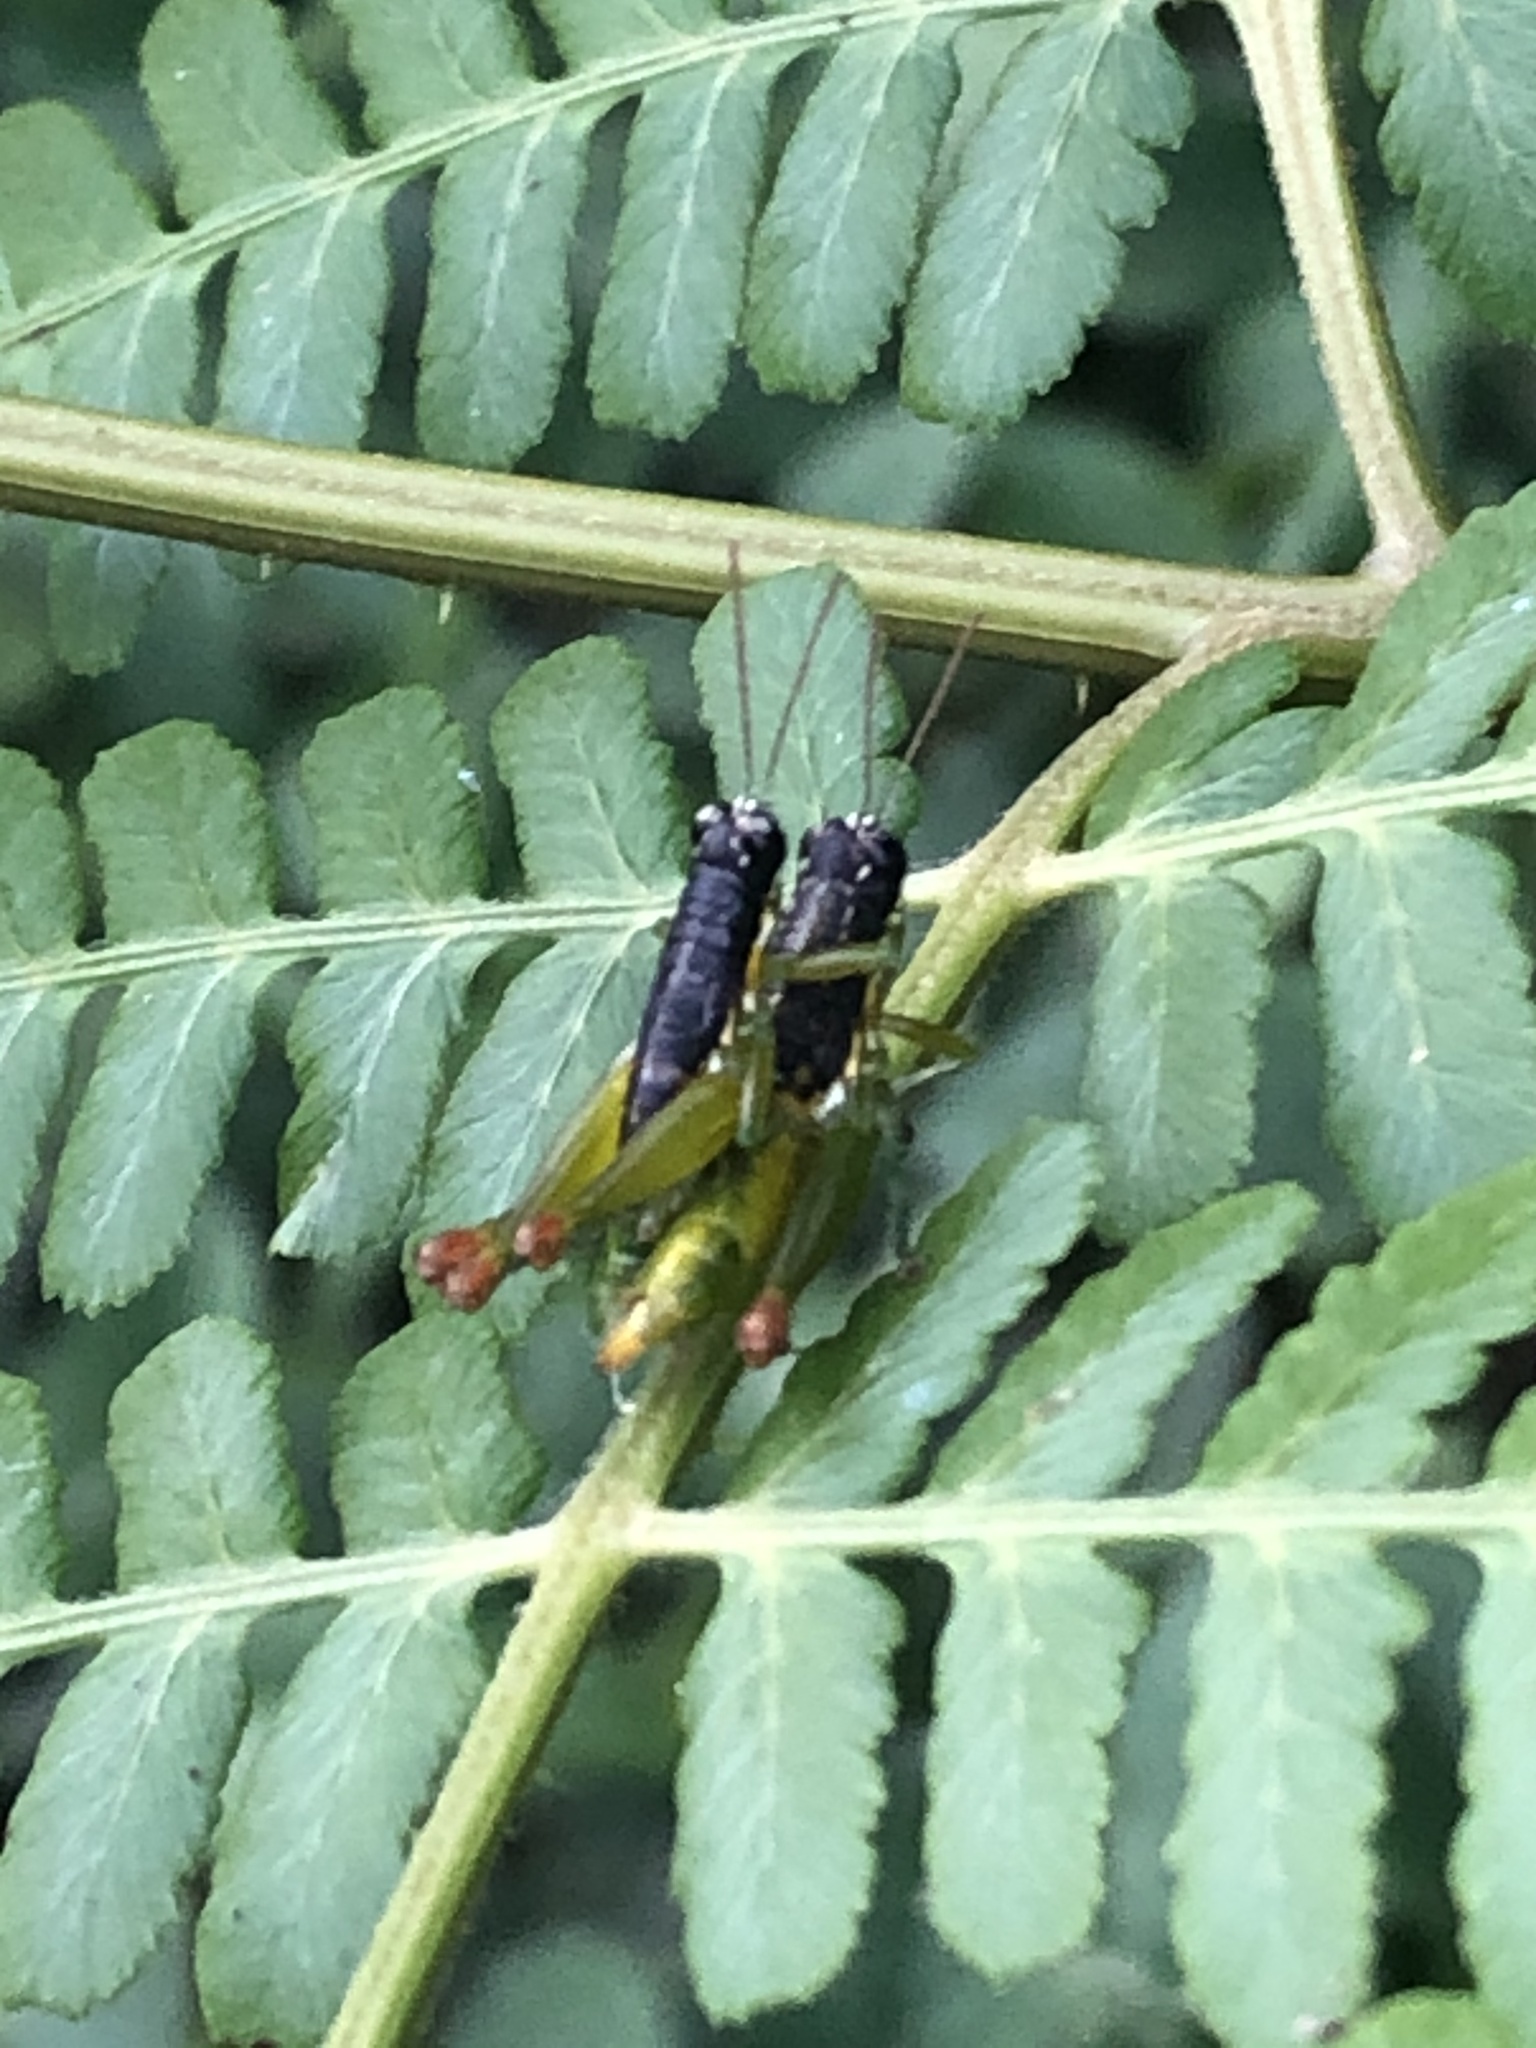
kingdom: Animalia
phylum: Arthropoda
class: Insecta
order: Orthoptera
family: Acrididae
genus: Liebermannacris
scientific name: Liebermannacris dorsualis
